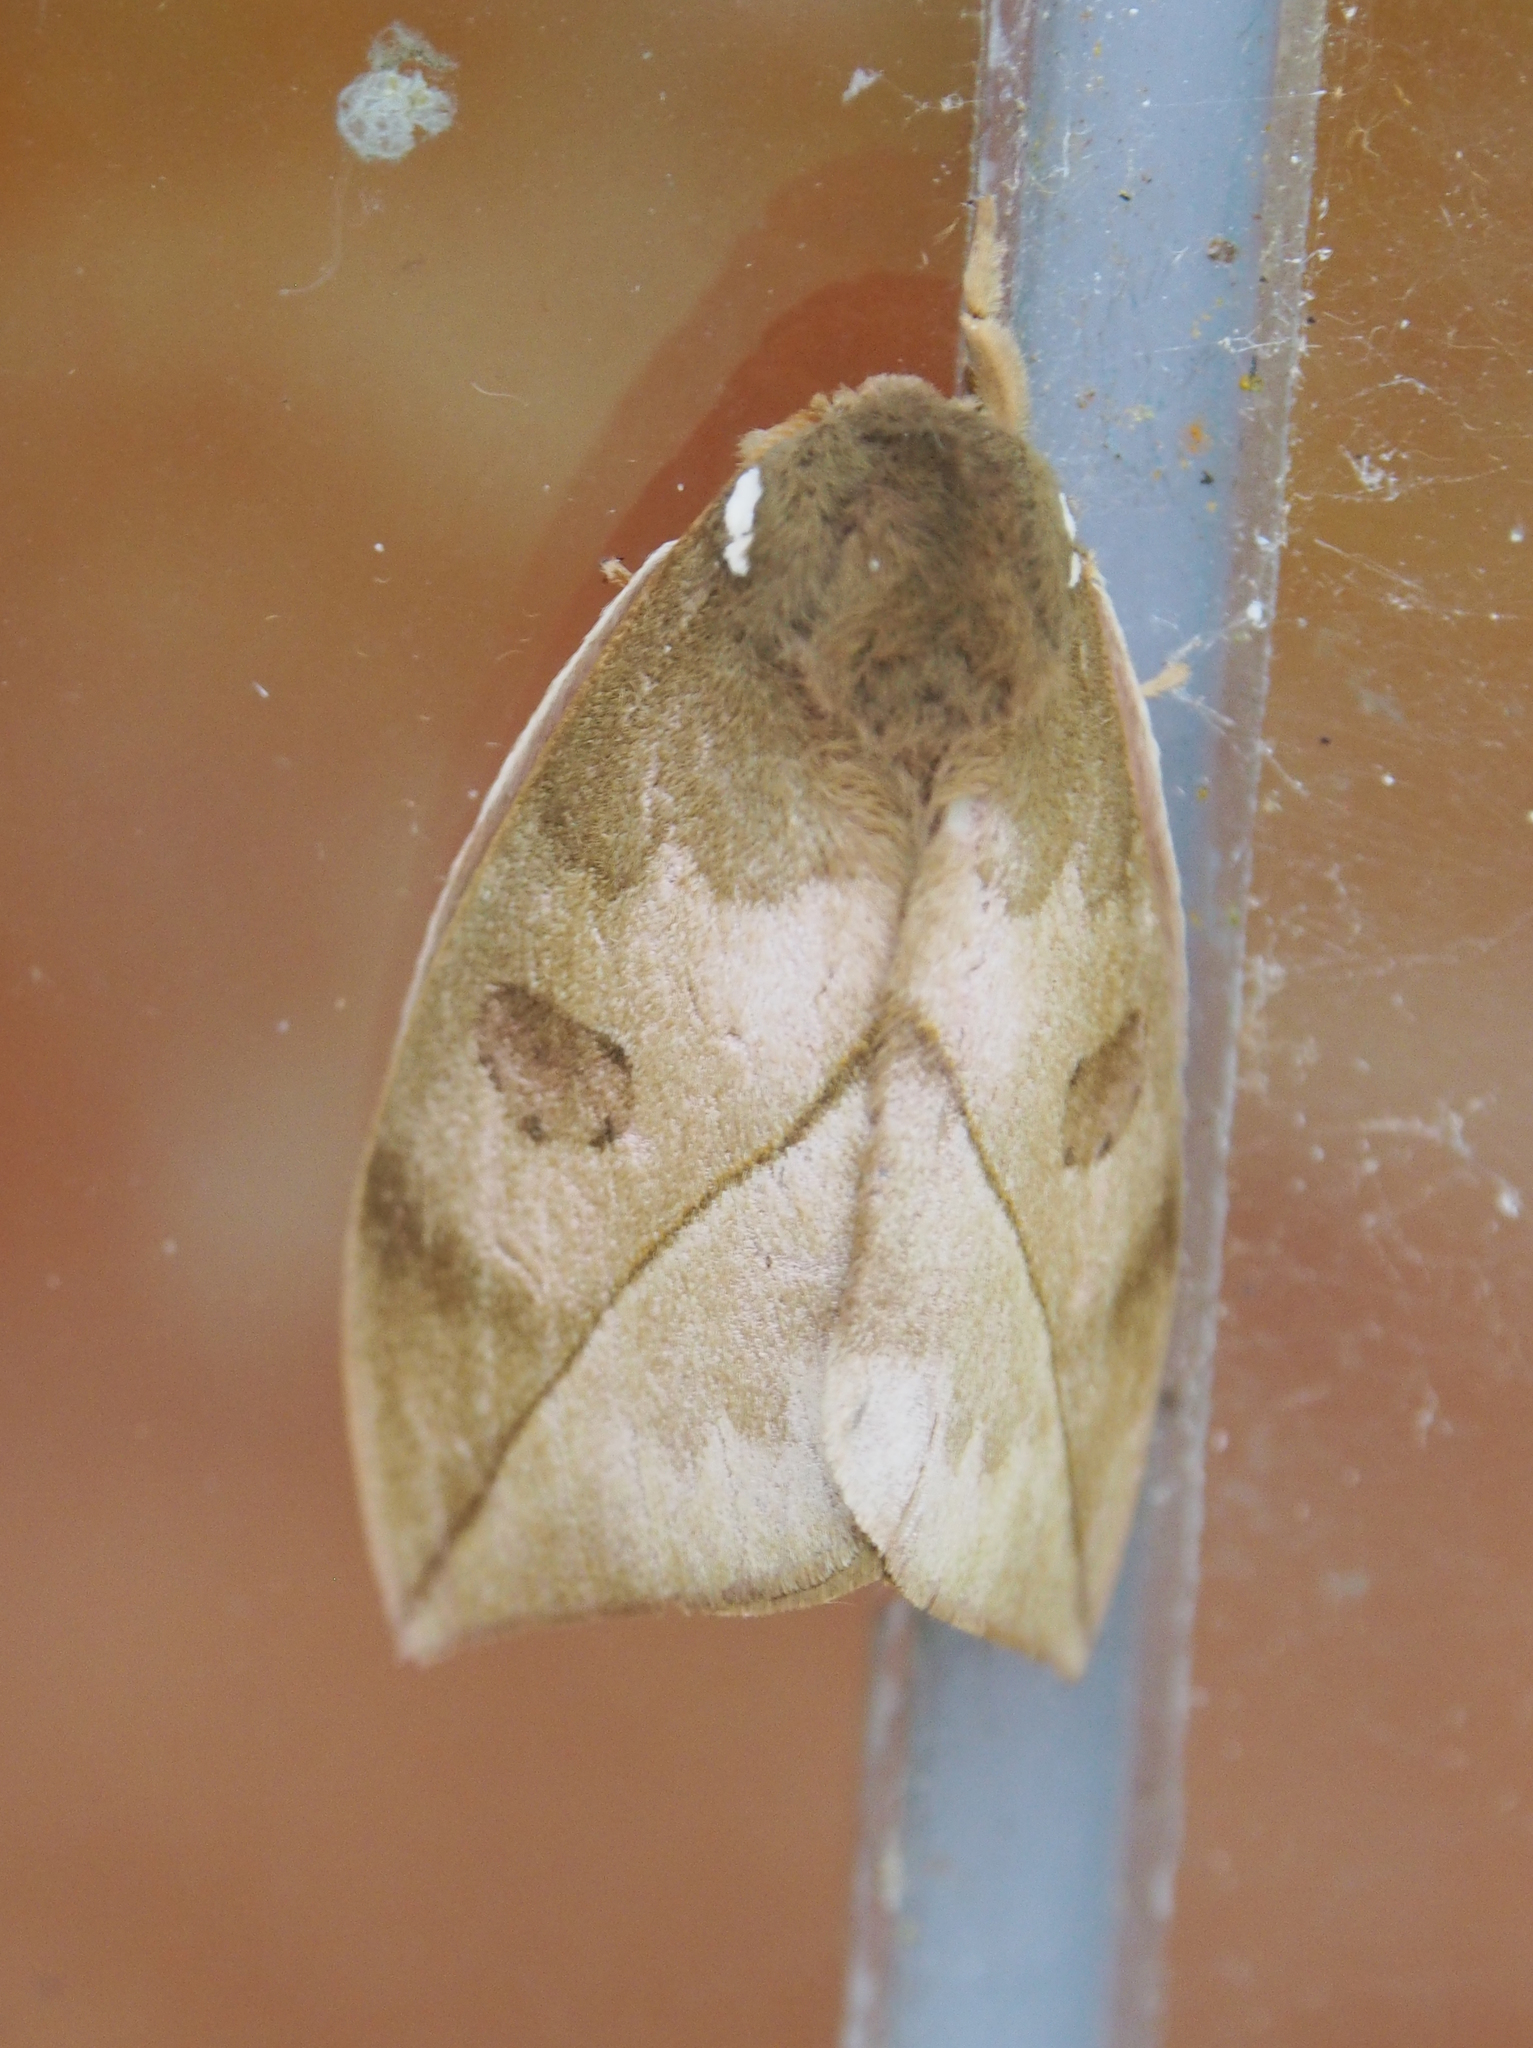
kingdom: Animalia
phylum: Arthropoda
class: Insecta
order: Lepidoptera
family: Saturniidae
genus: Automeris
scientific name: Automeris zugana
